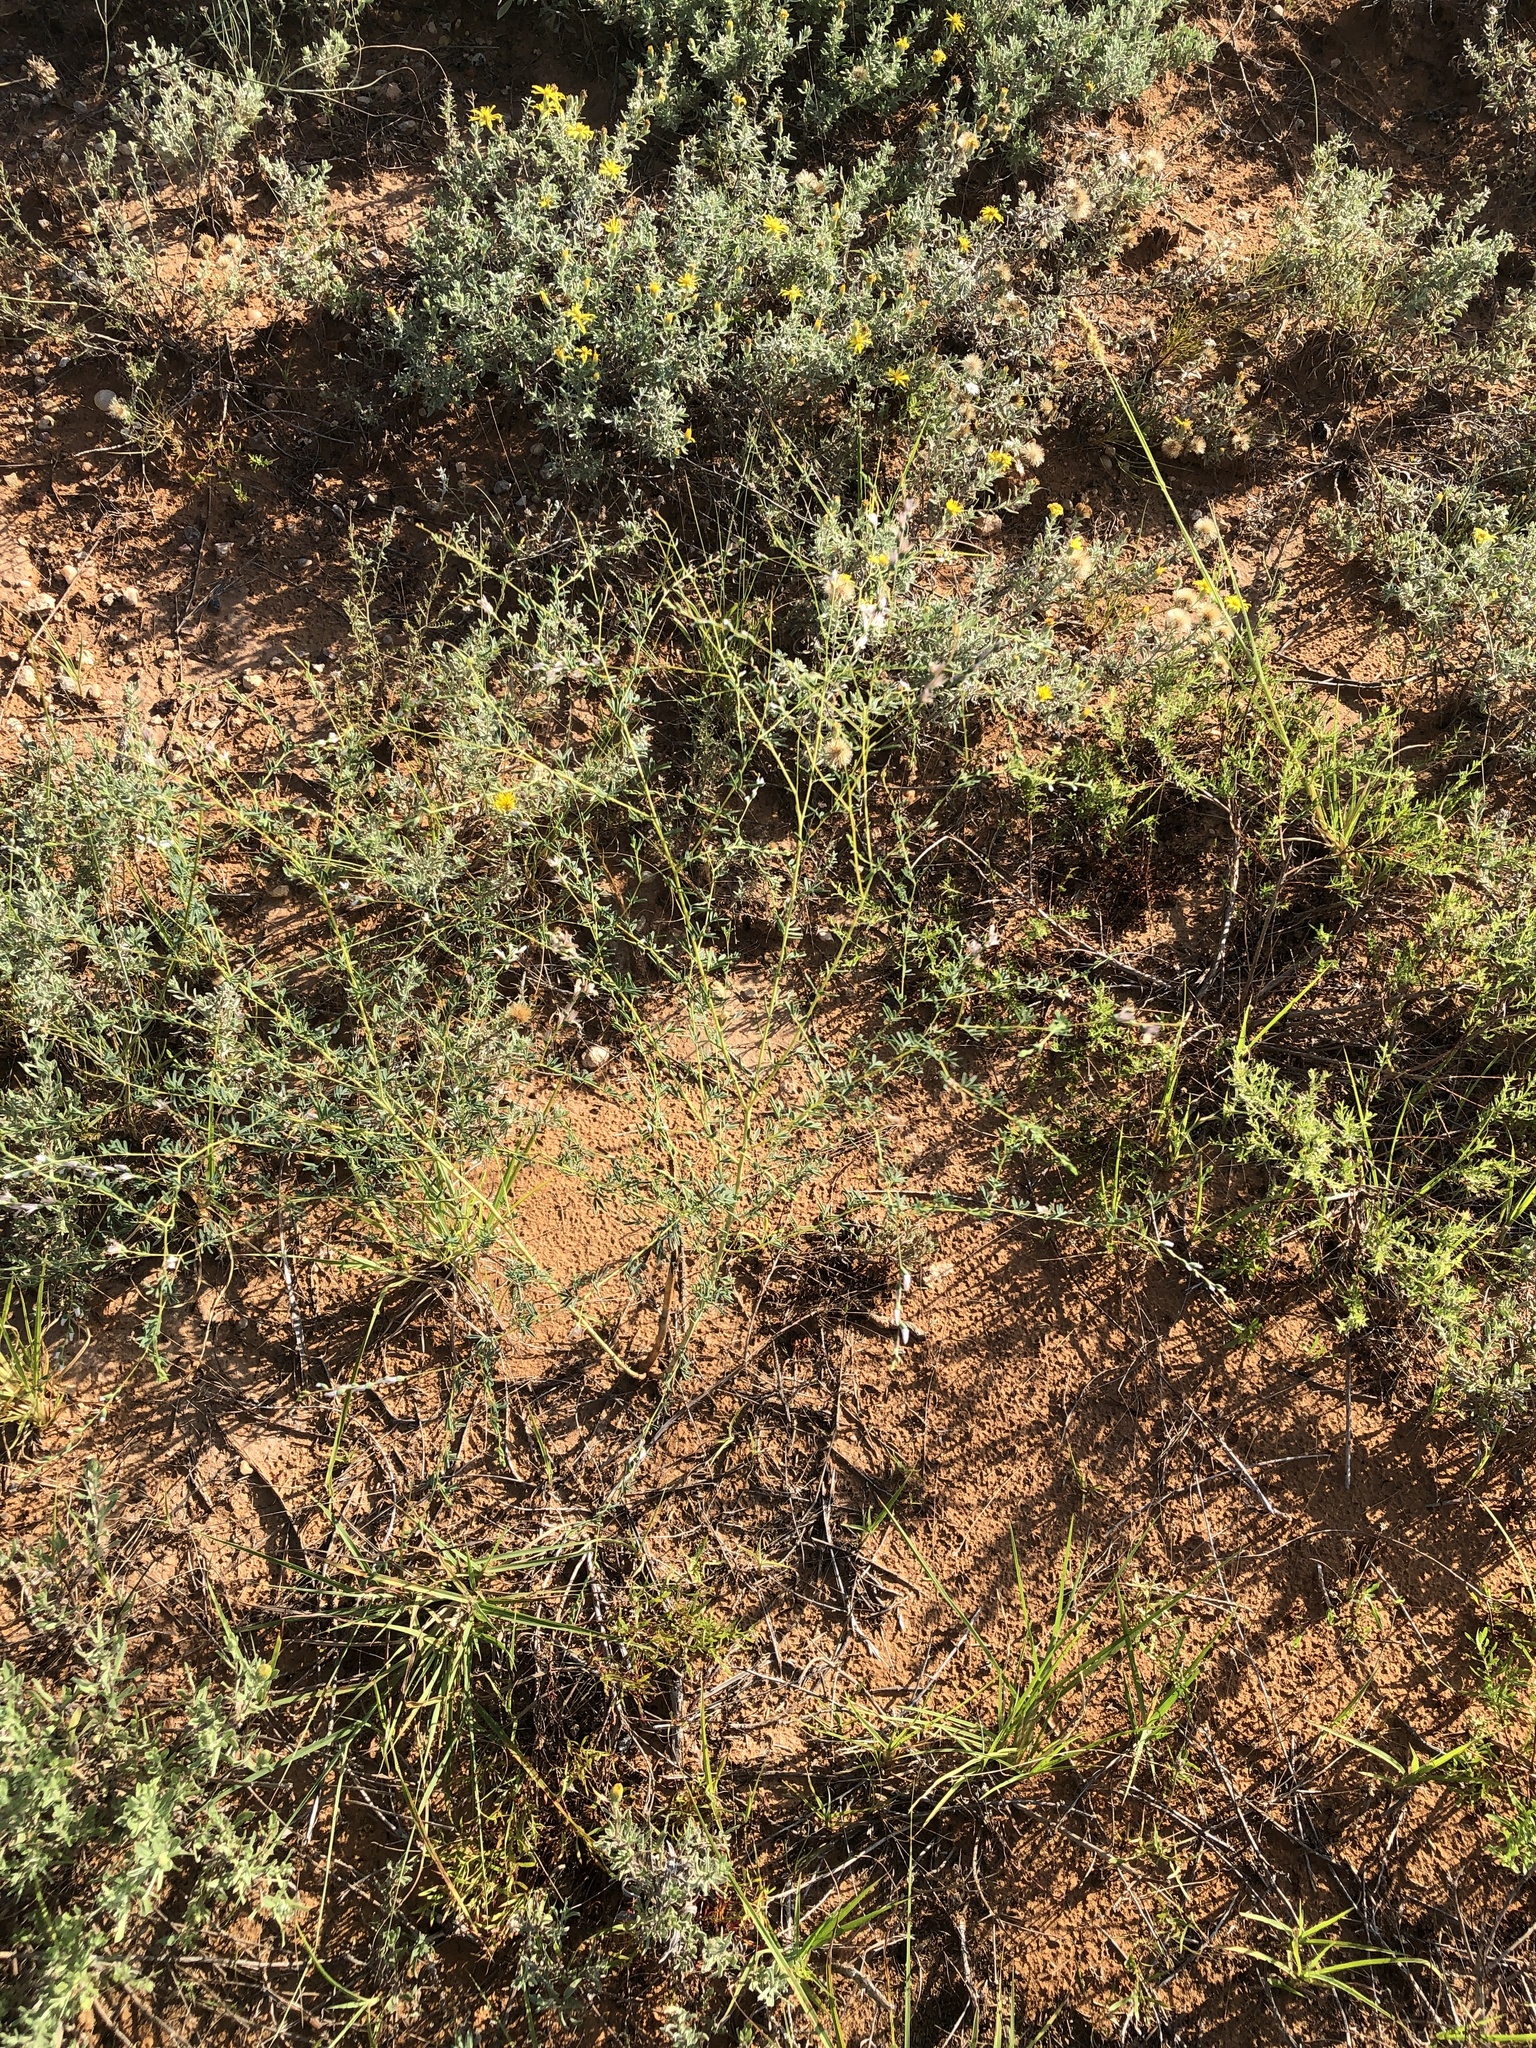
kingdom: Plantae
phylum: Tracheophyta
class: Magnoliopsida
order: Fabales
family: Fabaceae
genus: Dalea
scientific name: Dalea enneandra
